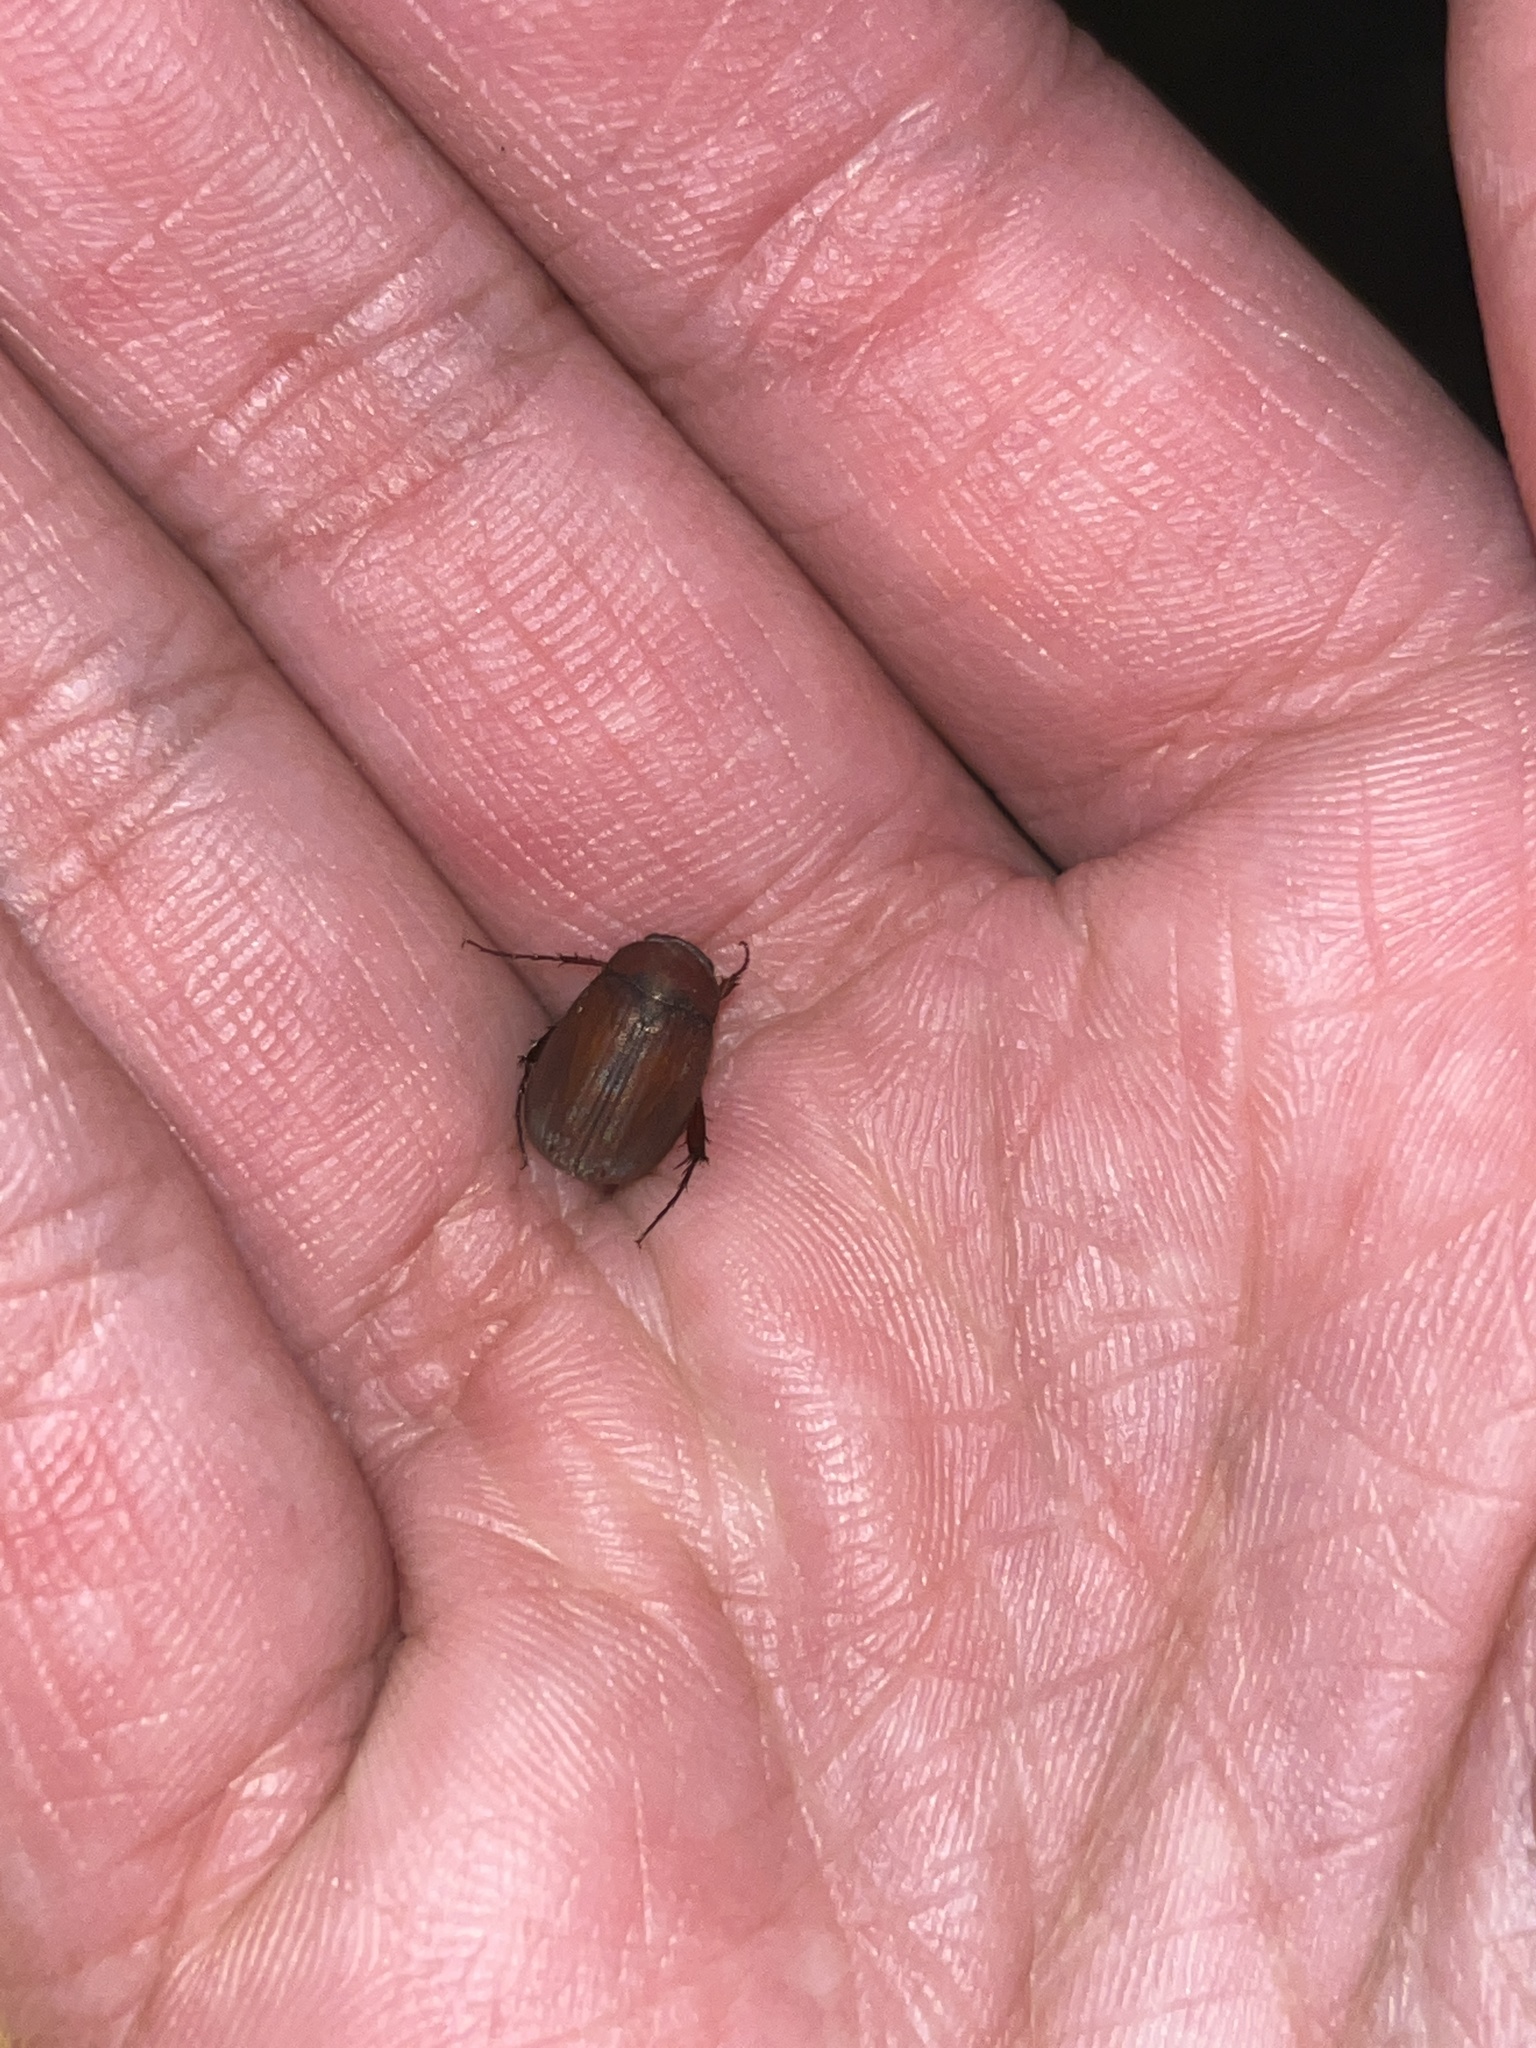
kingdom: Animalia
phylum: Arthropoda
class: Insecta
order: Coleoptera
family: Scarabaeidae
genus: Maladera
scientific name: Maladera formosae
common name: Asiatic garden beetle
